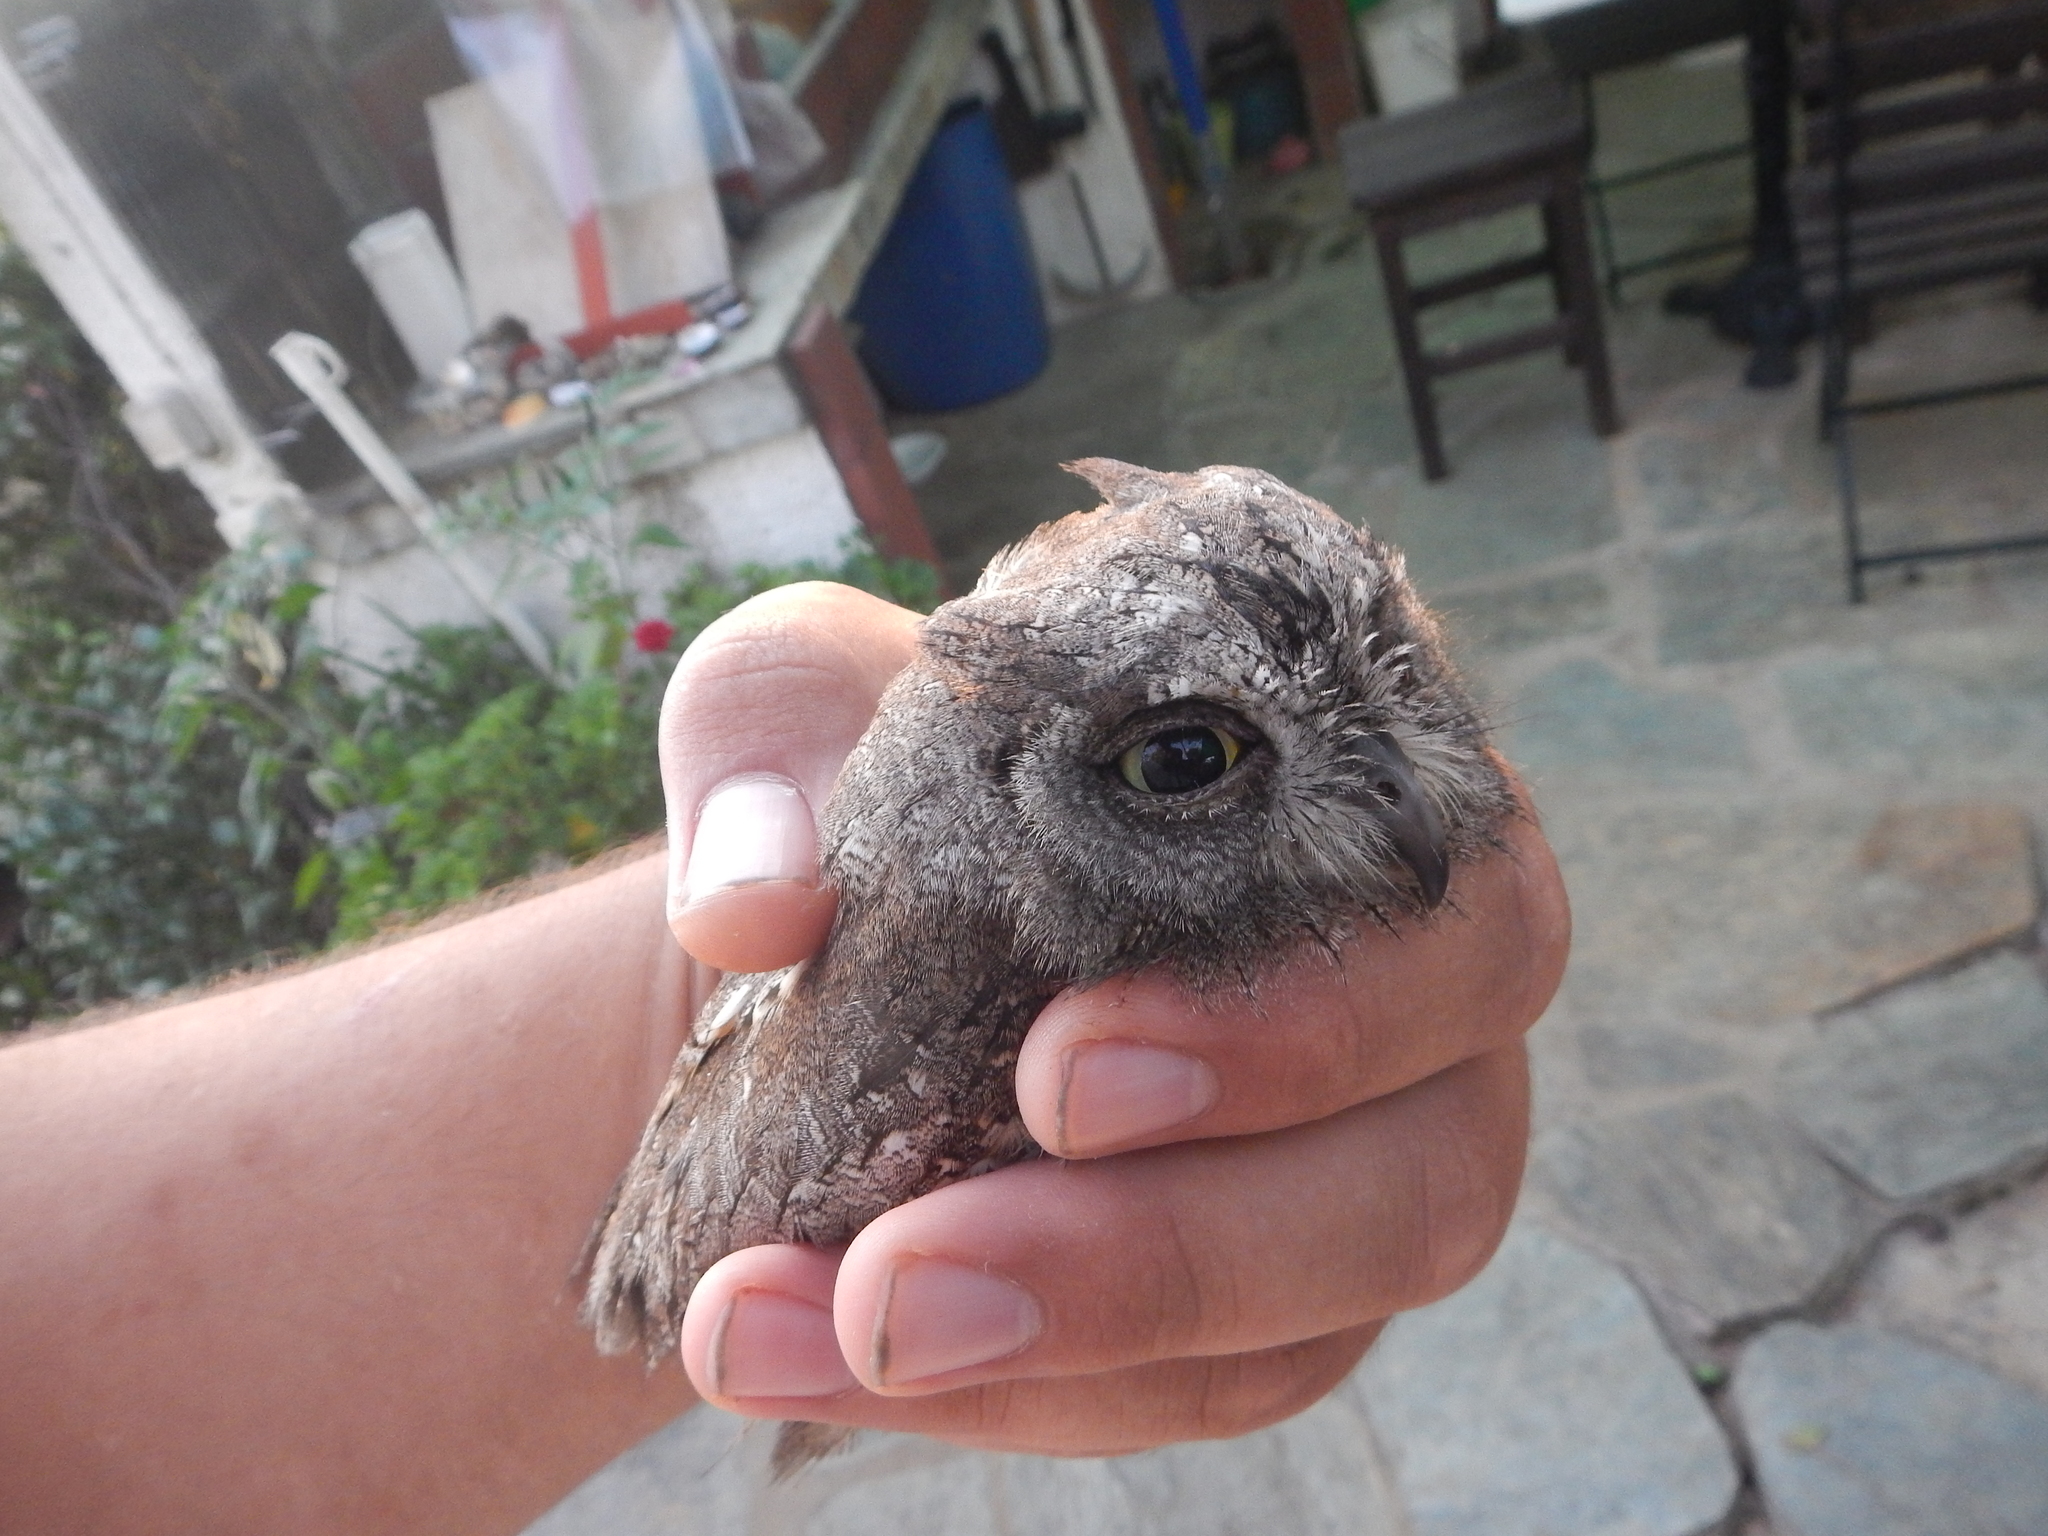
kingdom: Animalia
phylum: Chordata
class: Aves
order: Strigiformes
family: Strigidae
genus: Otus
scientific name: Otus scops
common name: Eurasian scops owl
